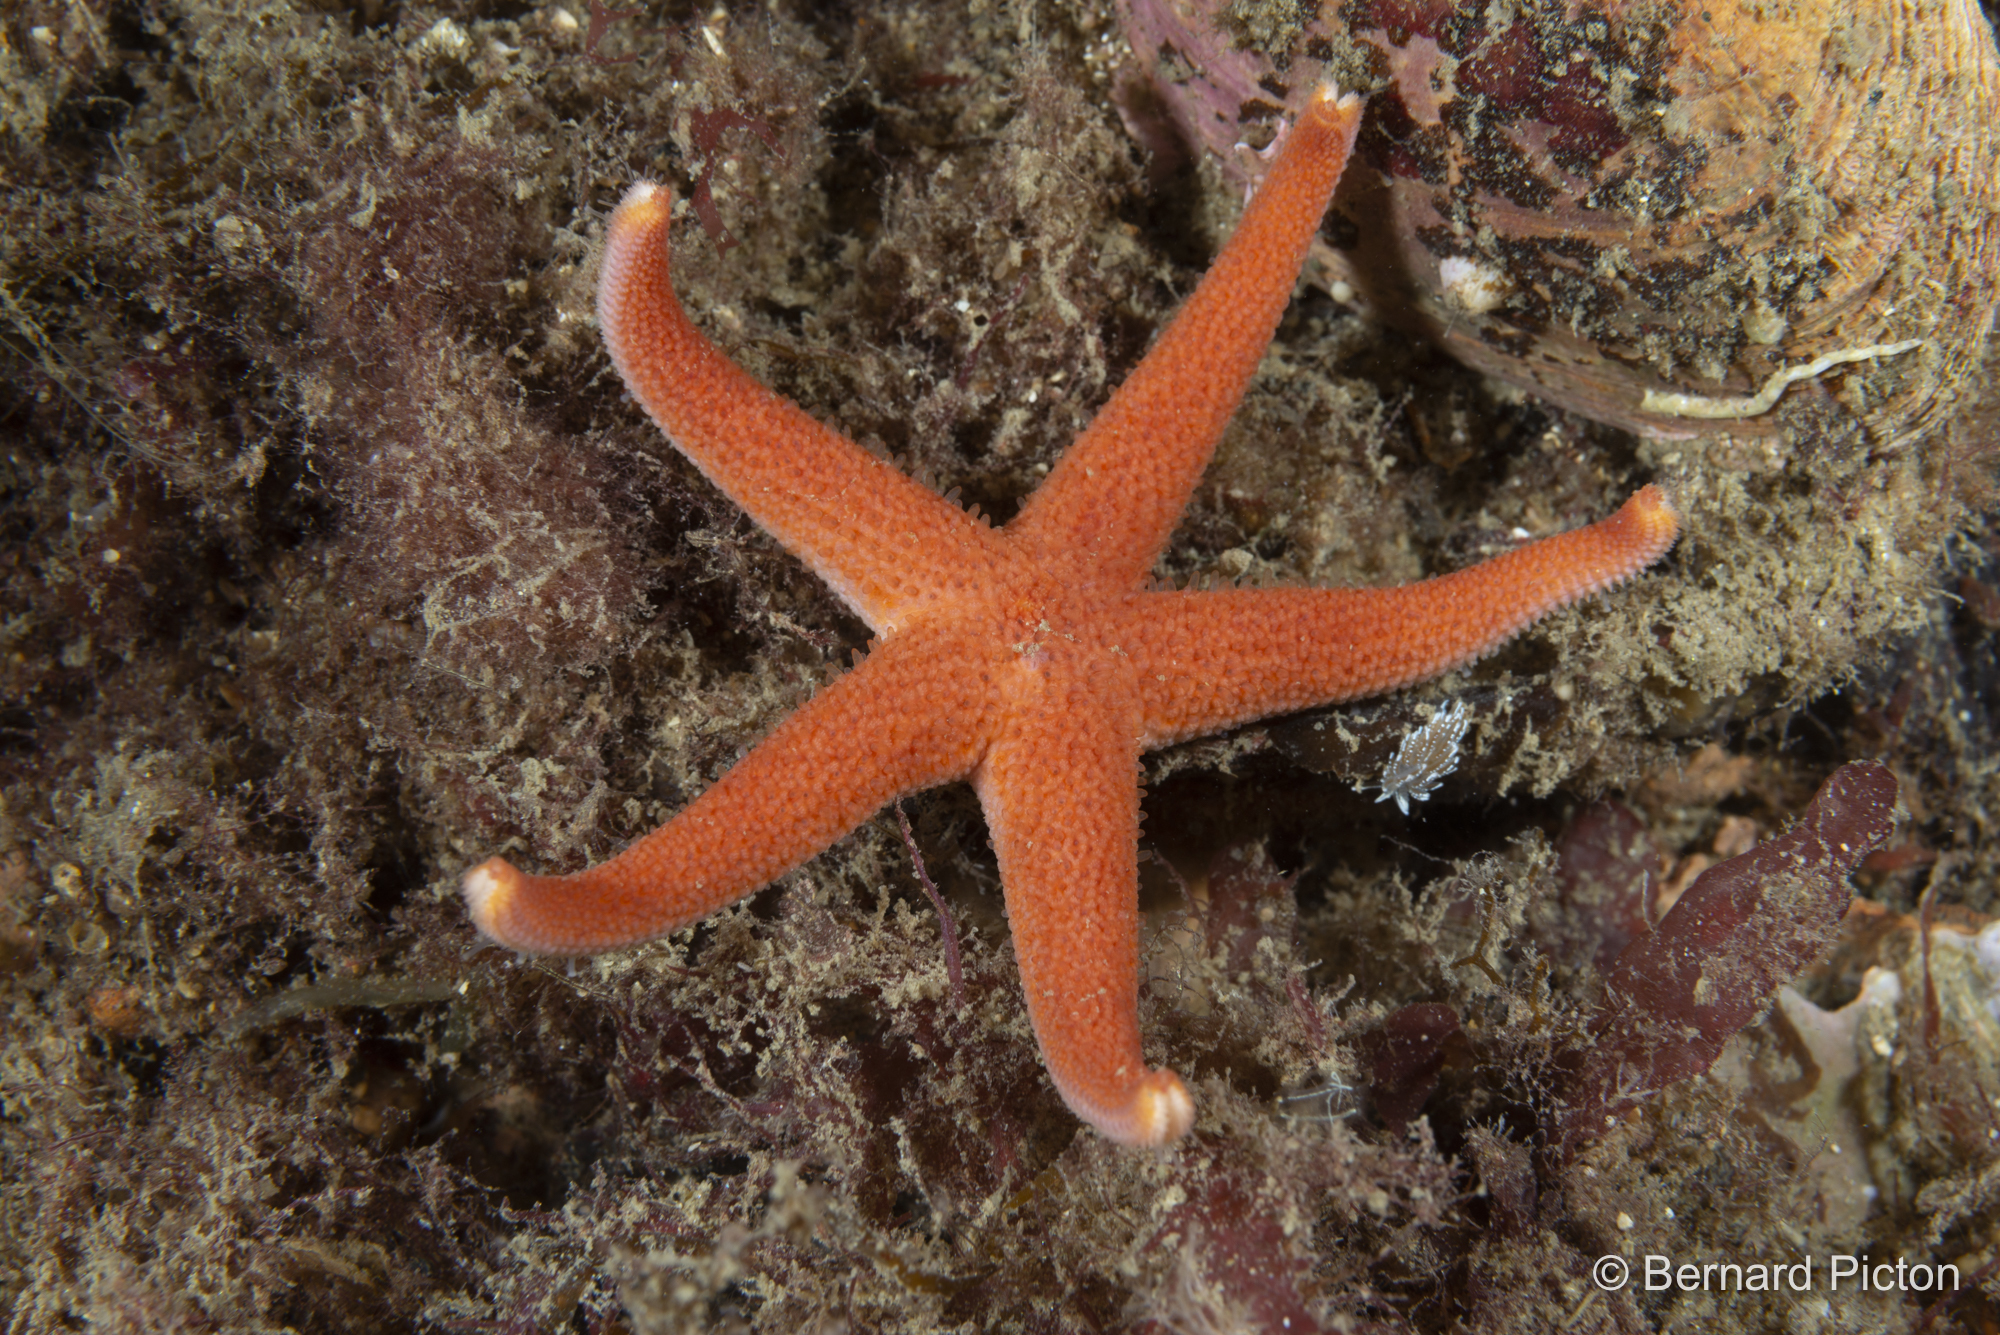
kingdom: Animalia
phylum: Mollusca
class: Gastropoda
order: Nudibranchia
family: Facelinidae
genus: Favorinus
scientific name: Favorinus blianus
